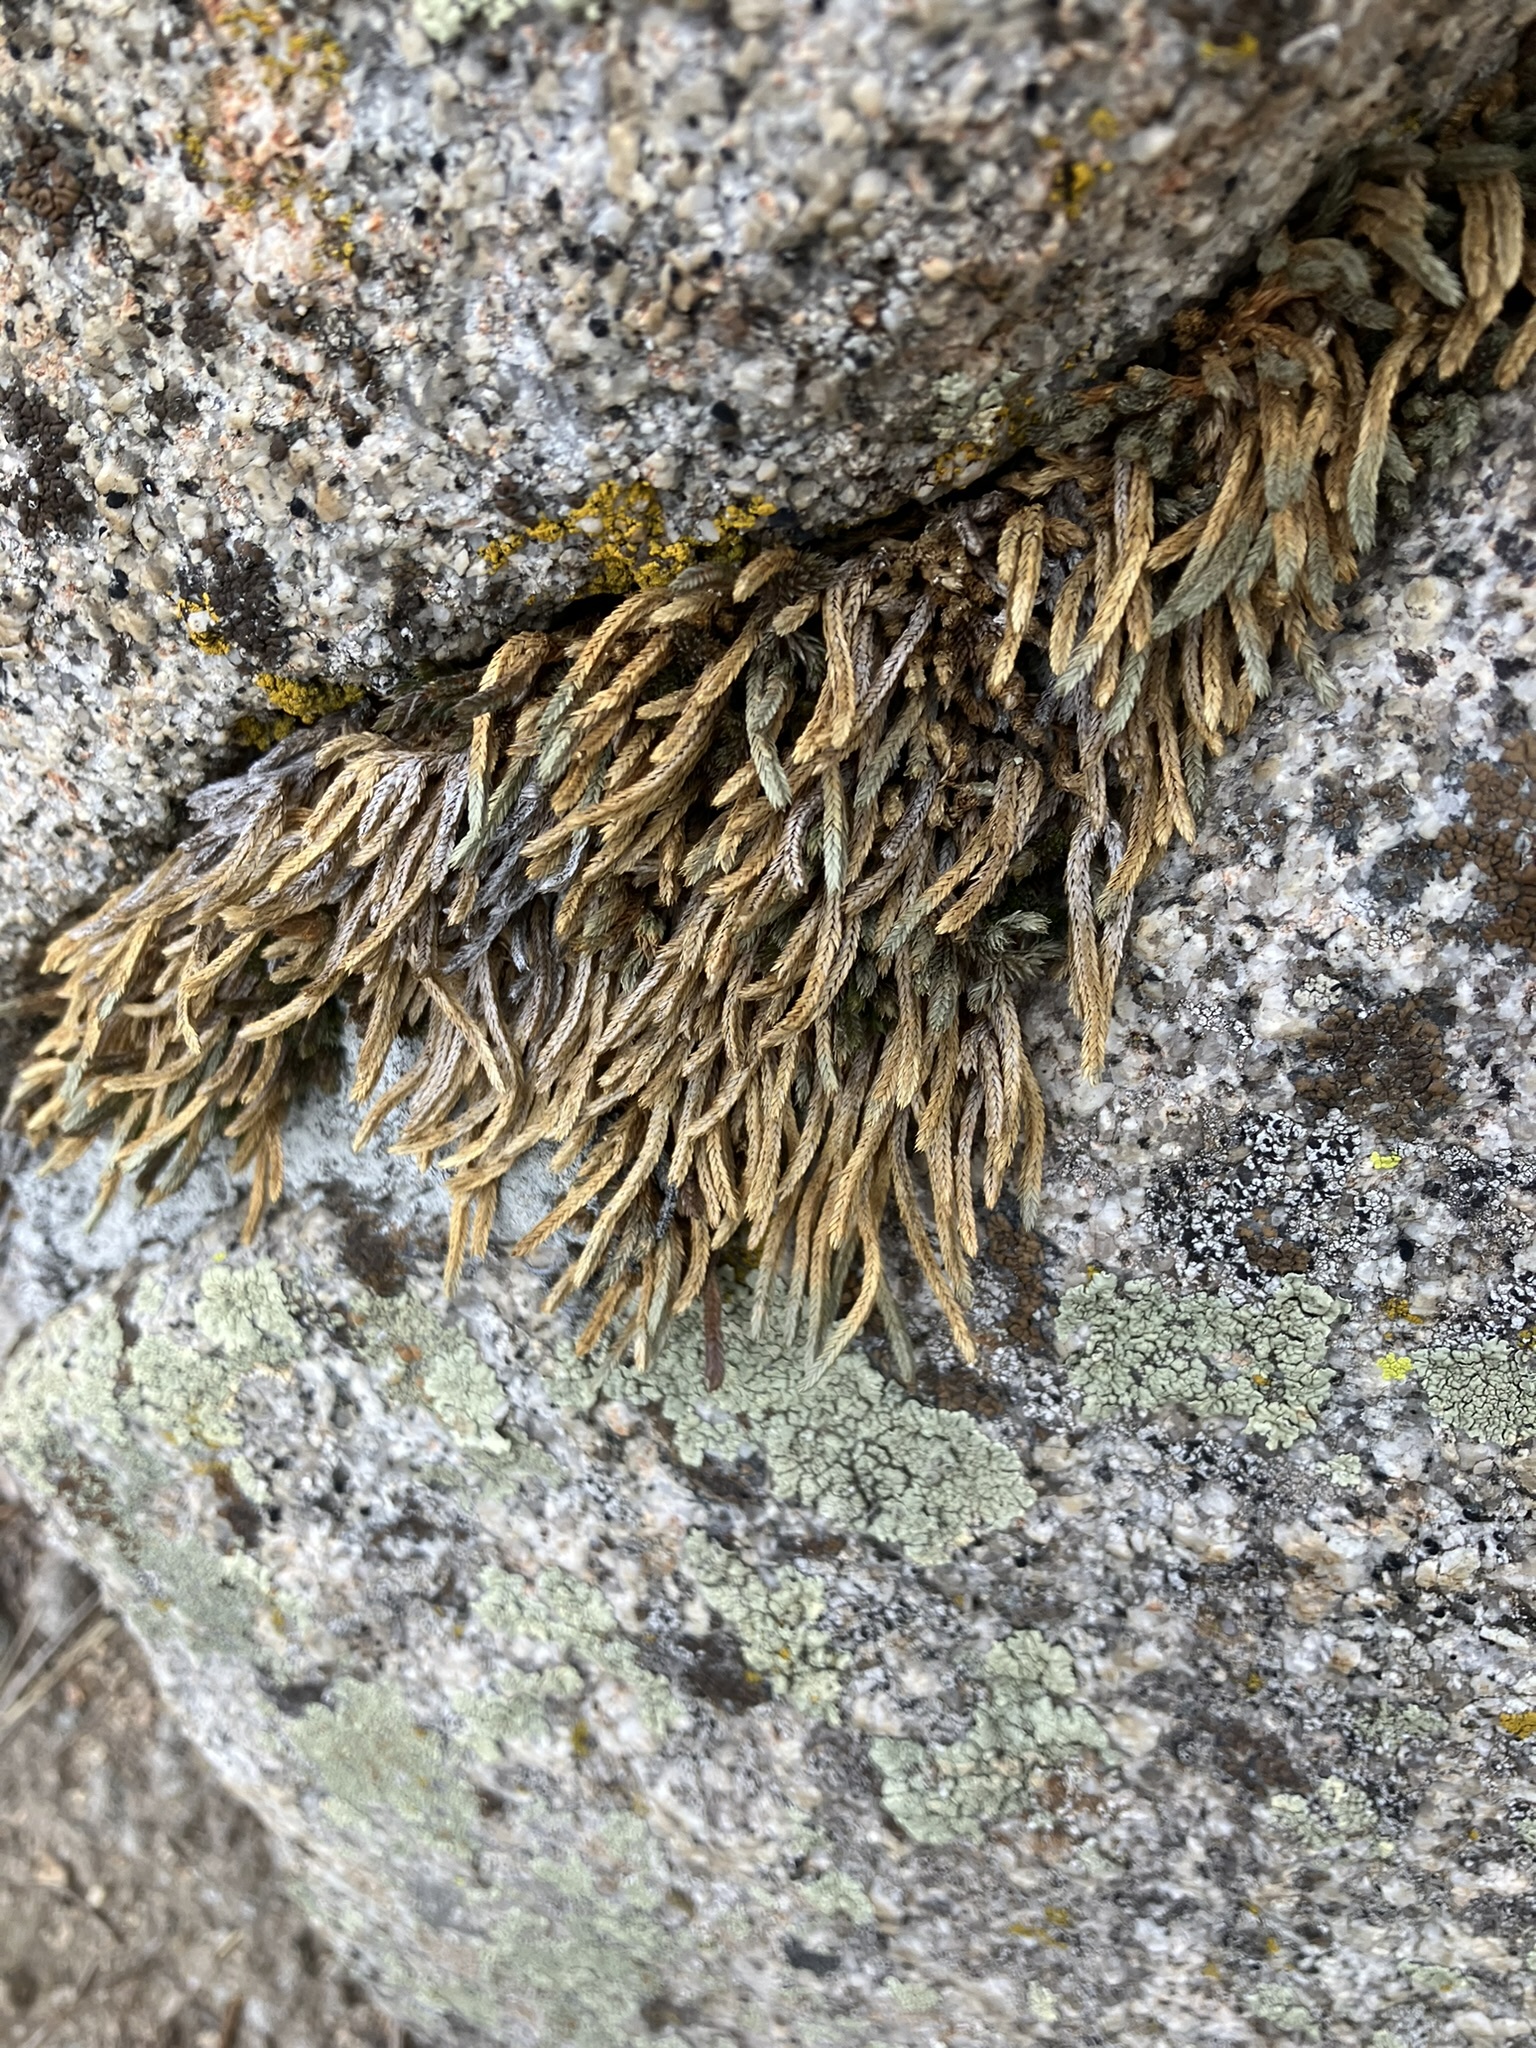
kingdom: Plantae
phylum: Tracheophyta
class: Lycopodiopsida
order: Selaginellales
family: Selaginellaceae
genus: Selaginella
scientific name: Selaginella watsonii
